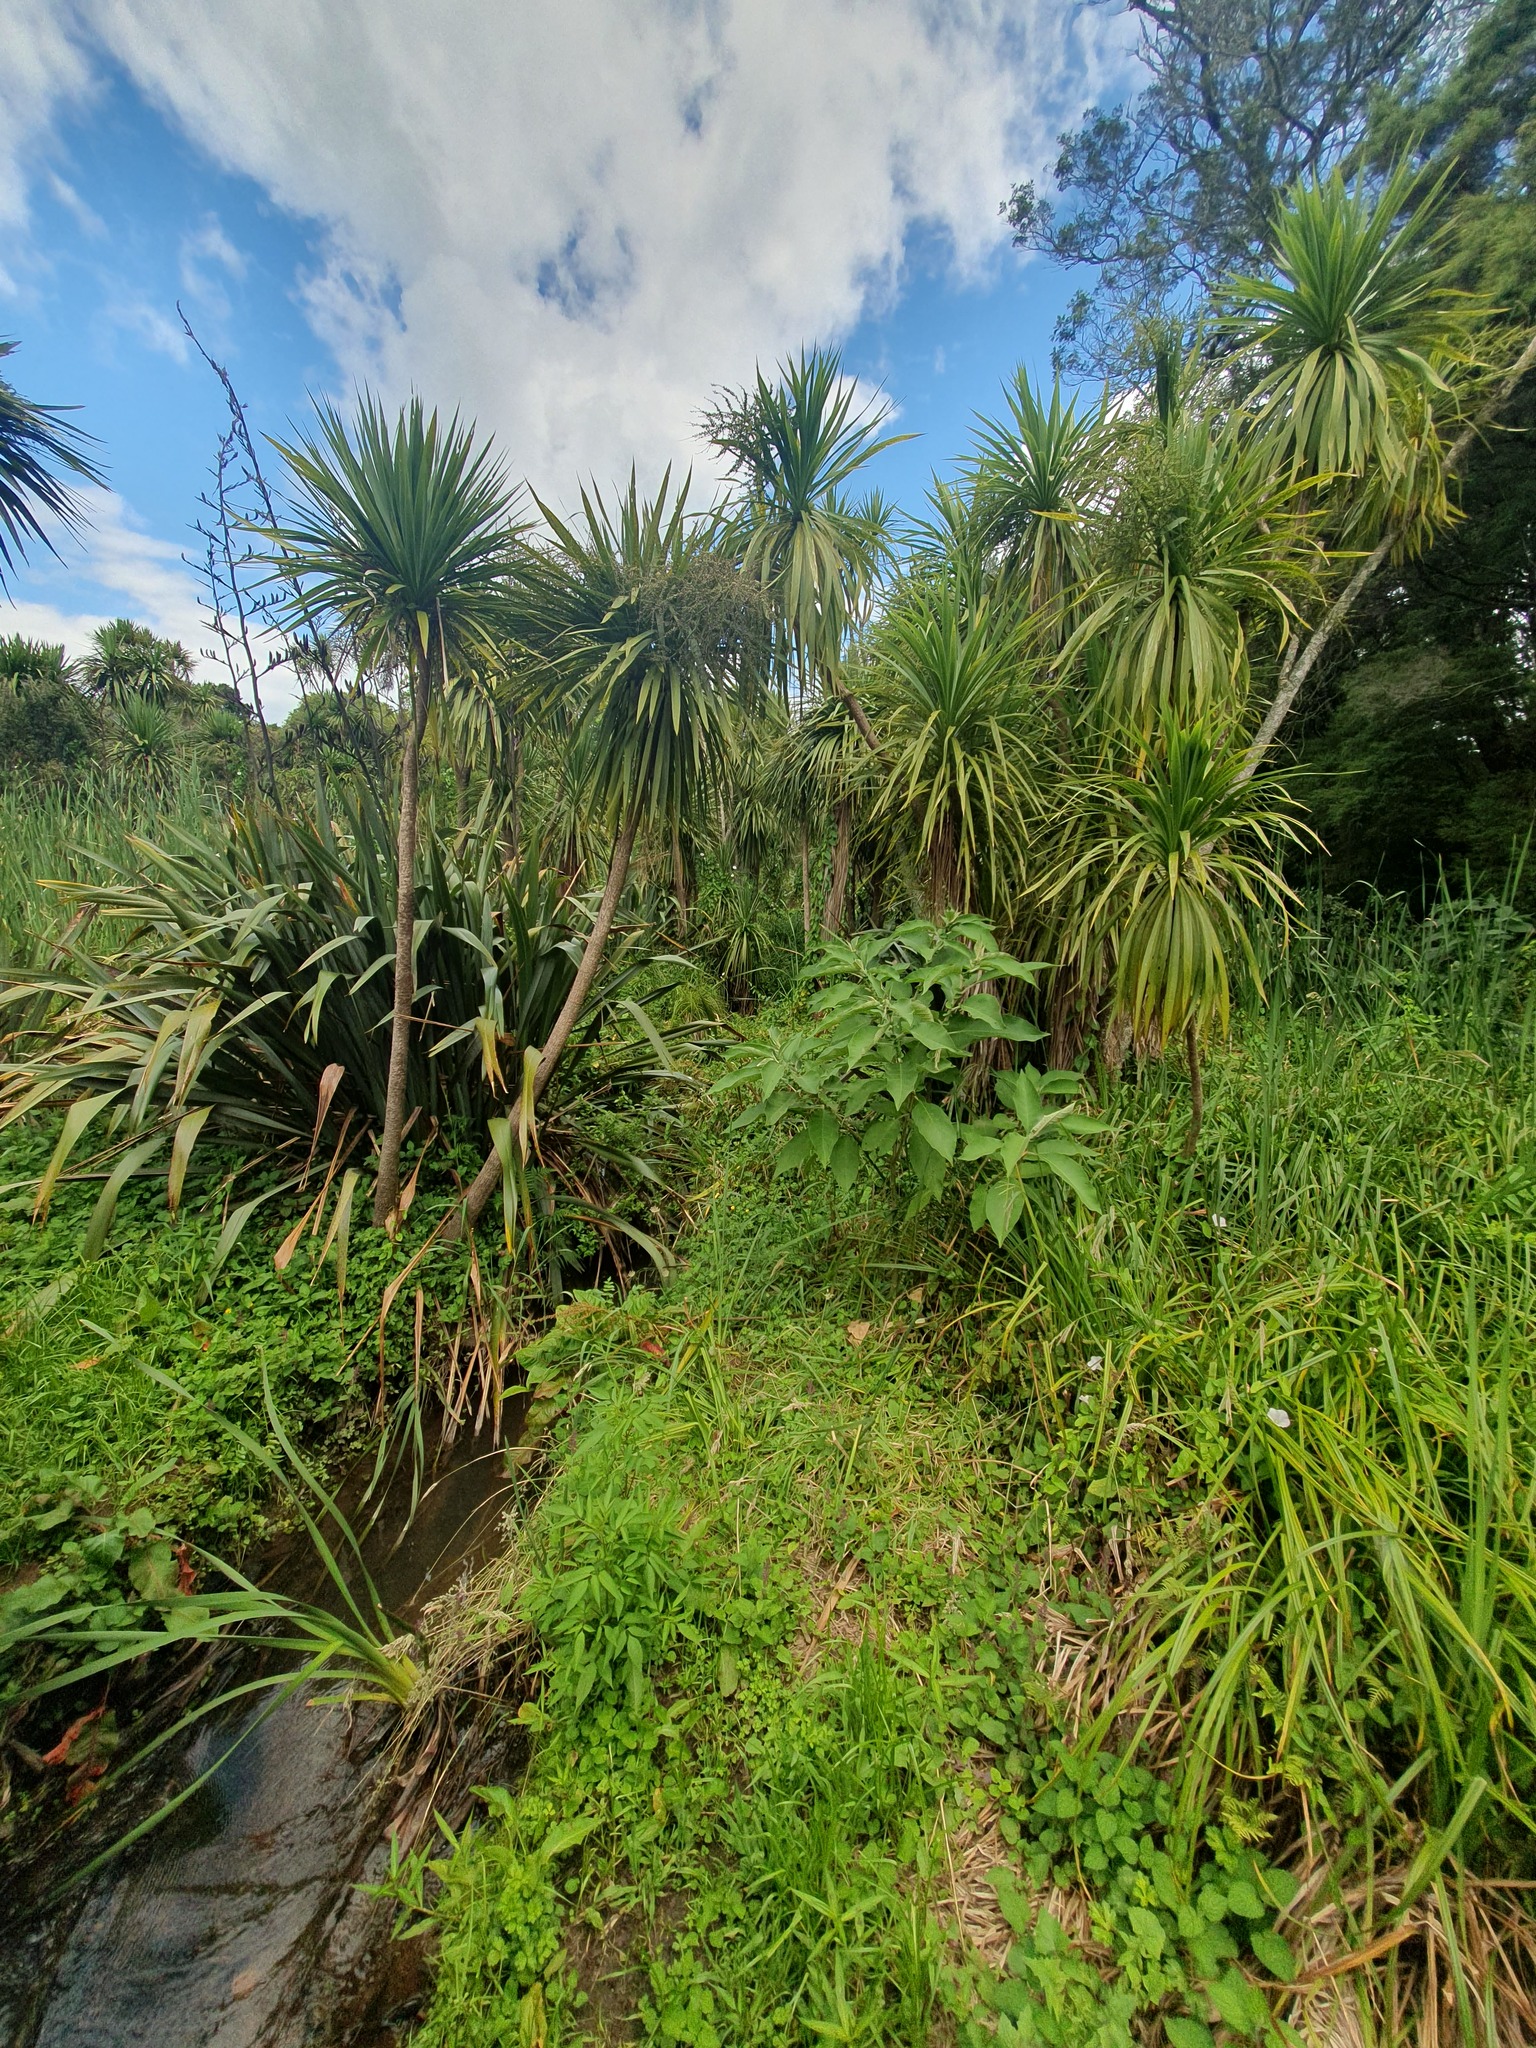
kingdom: Plantae
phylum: Tracheophyta
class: Magnoliopsida
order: Solanales
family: Solanaceae
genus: Solanum
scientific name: Solanum mauritianum
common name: Earleaf nightshade
